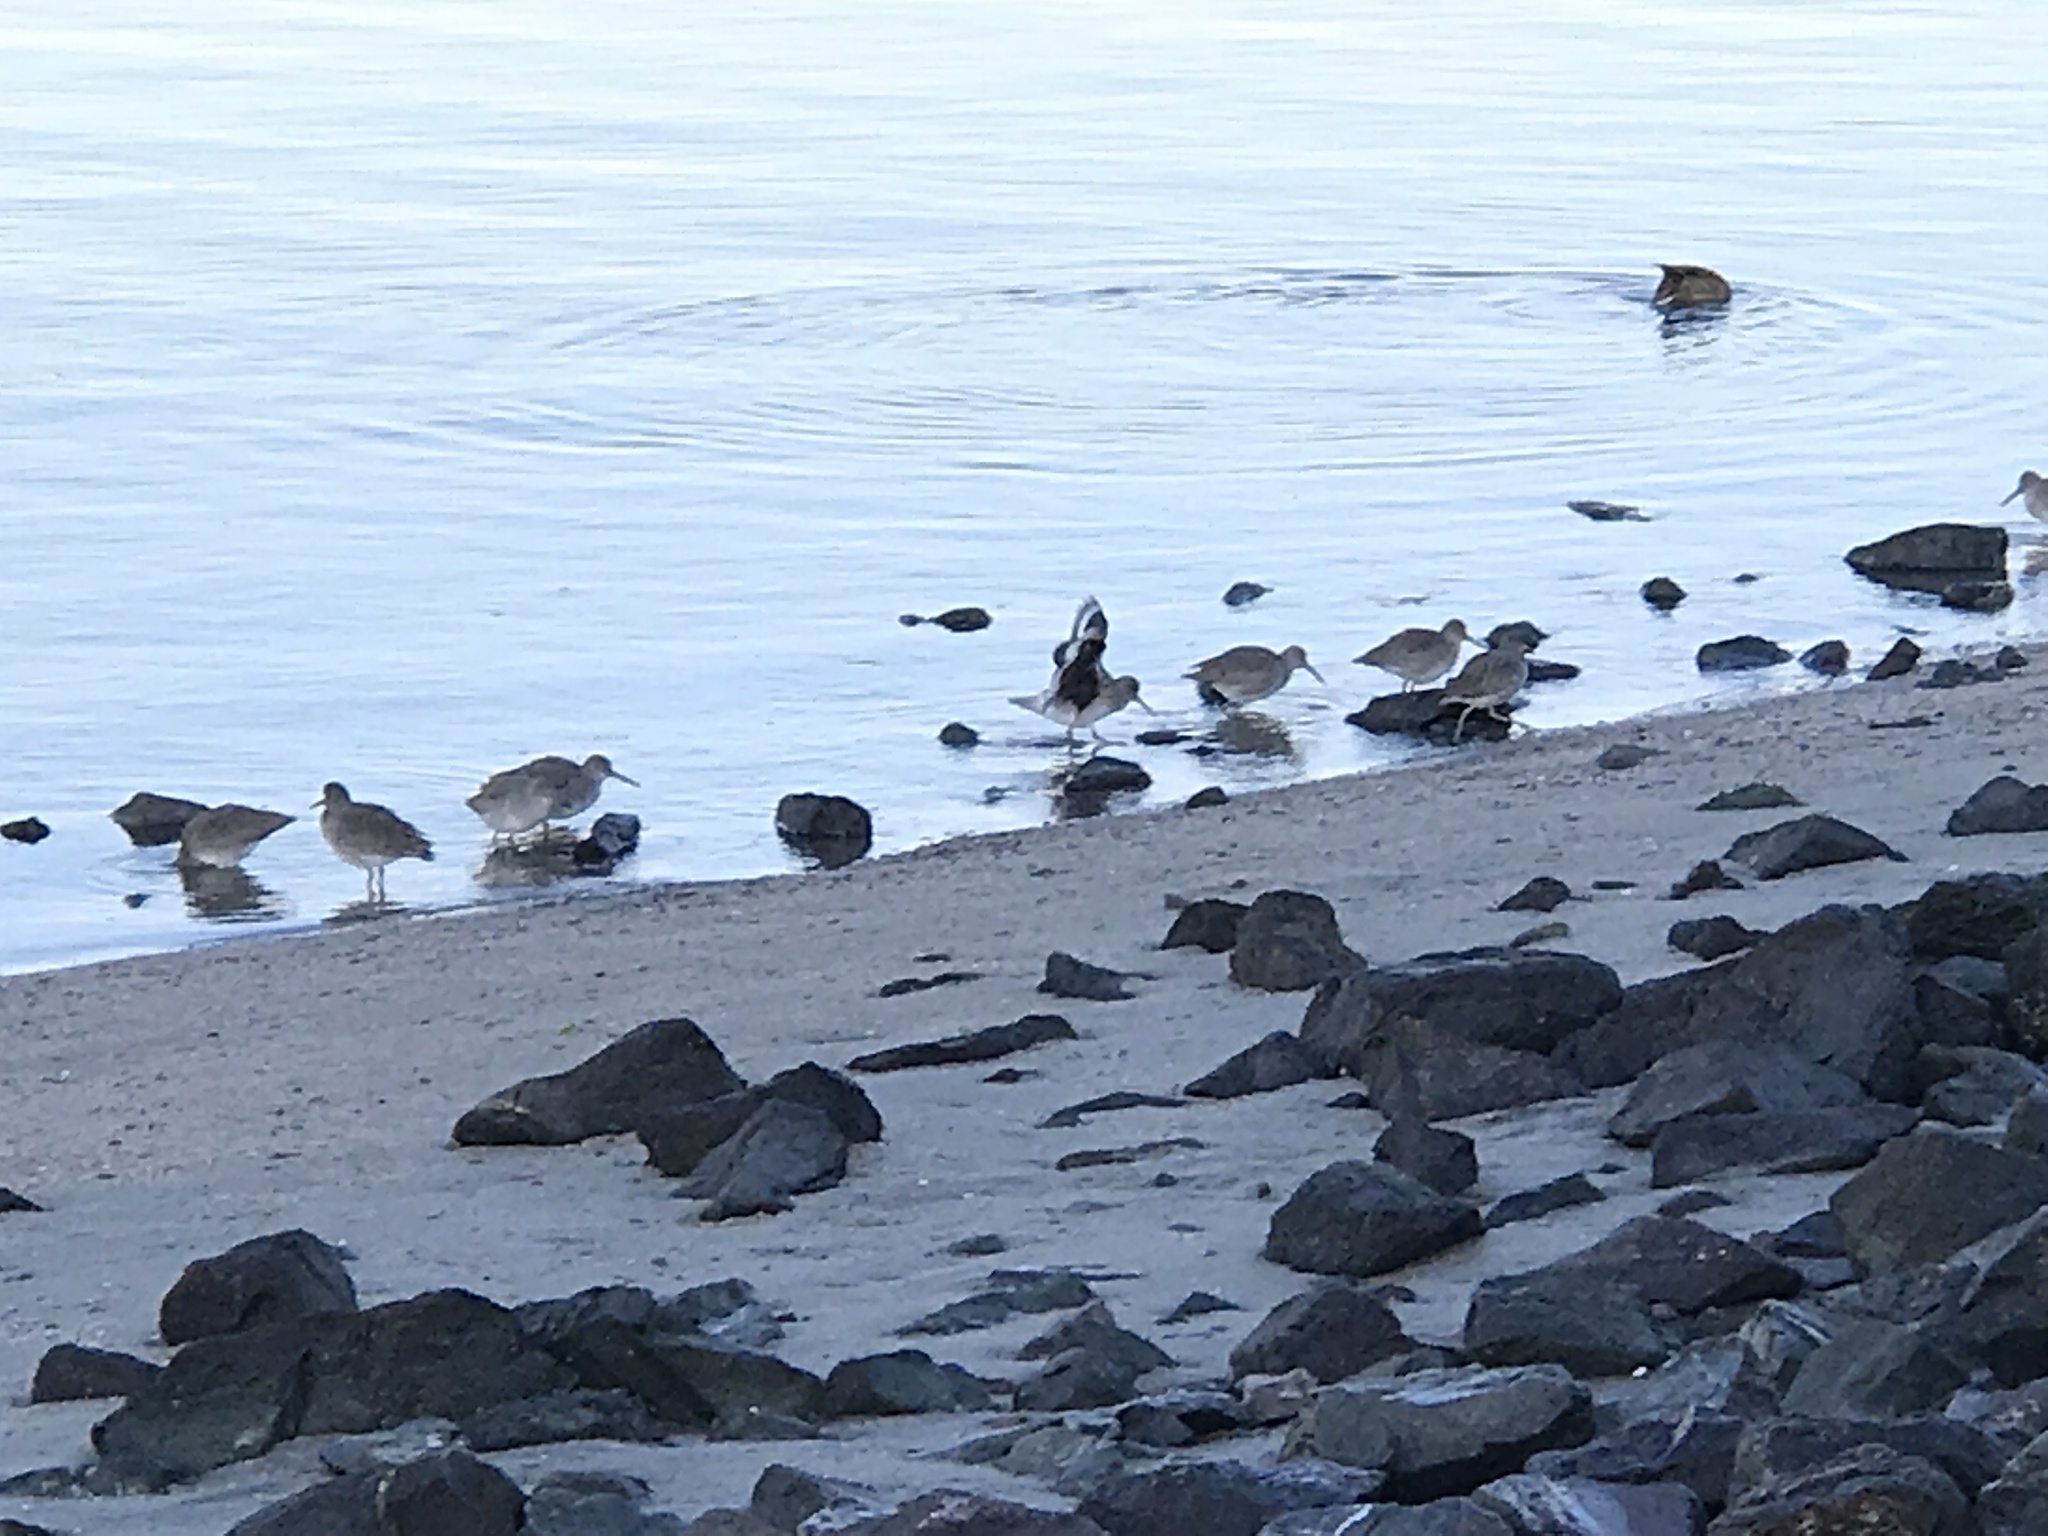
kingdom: Animalia
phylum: Chordata
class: Aves
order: Charadriiformes
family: Scolopacidae
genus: Tringa
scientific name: Tringa semipalmata
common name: Willet
